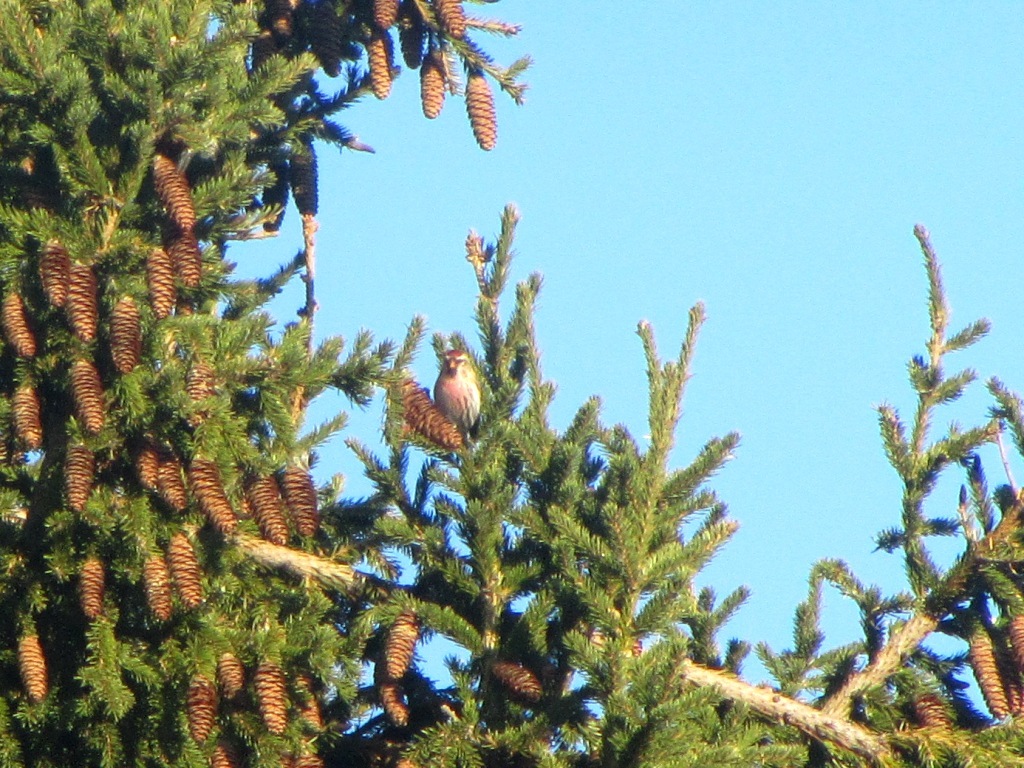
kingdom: Animalia
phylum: Chordata
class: Aves
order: Passeriformes
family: Fringillidae
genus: Acanthis
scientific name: Acanthis flammea
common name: Common redpoll
